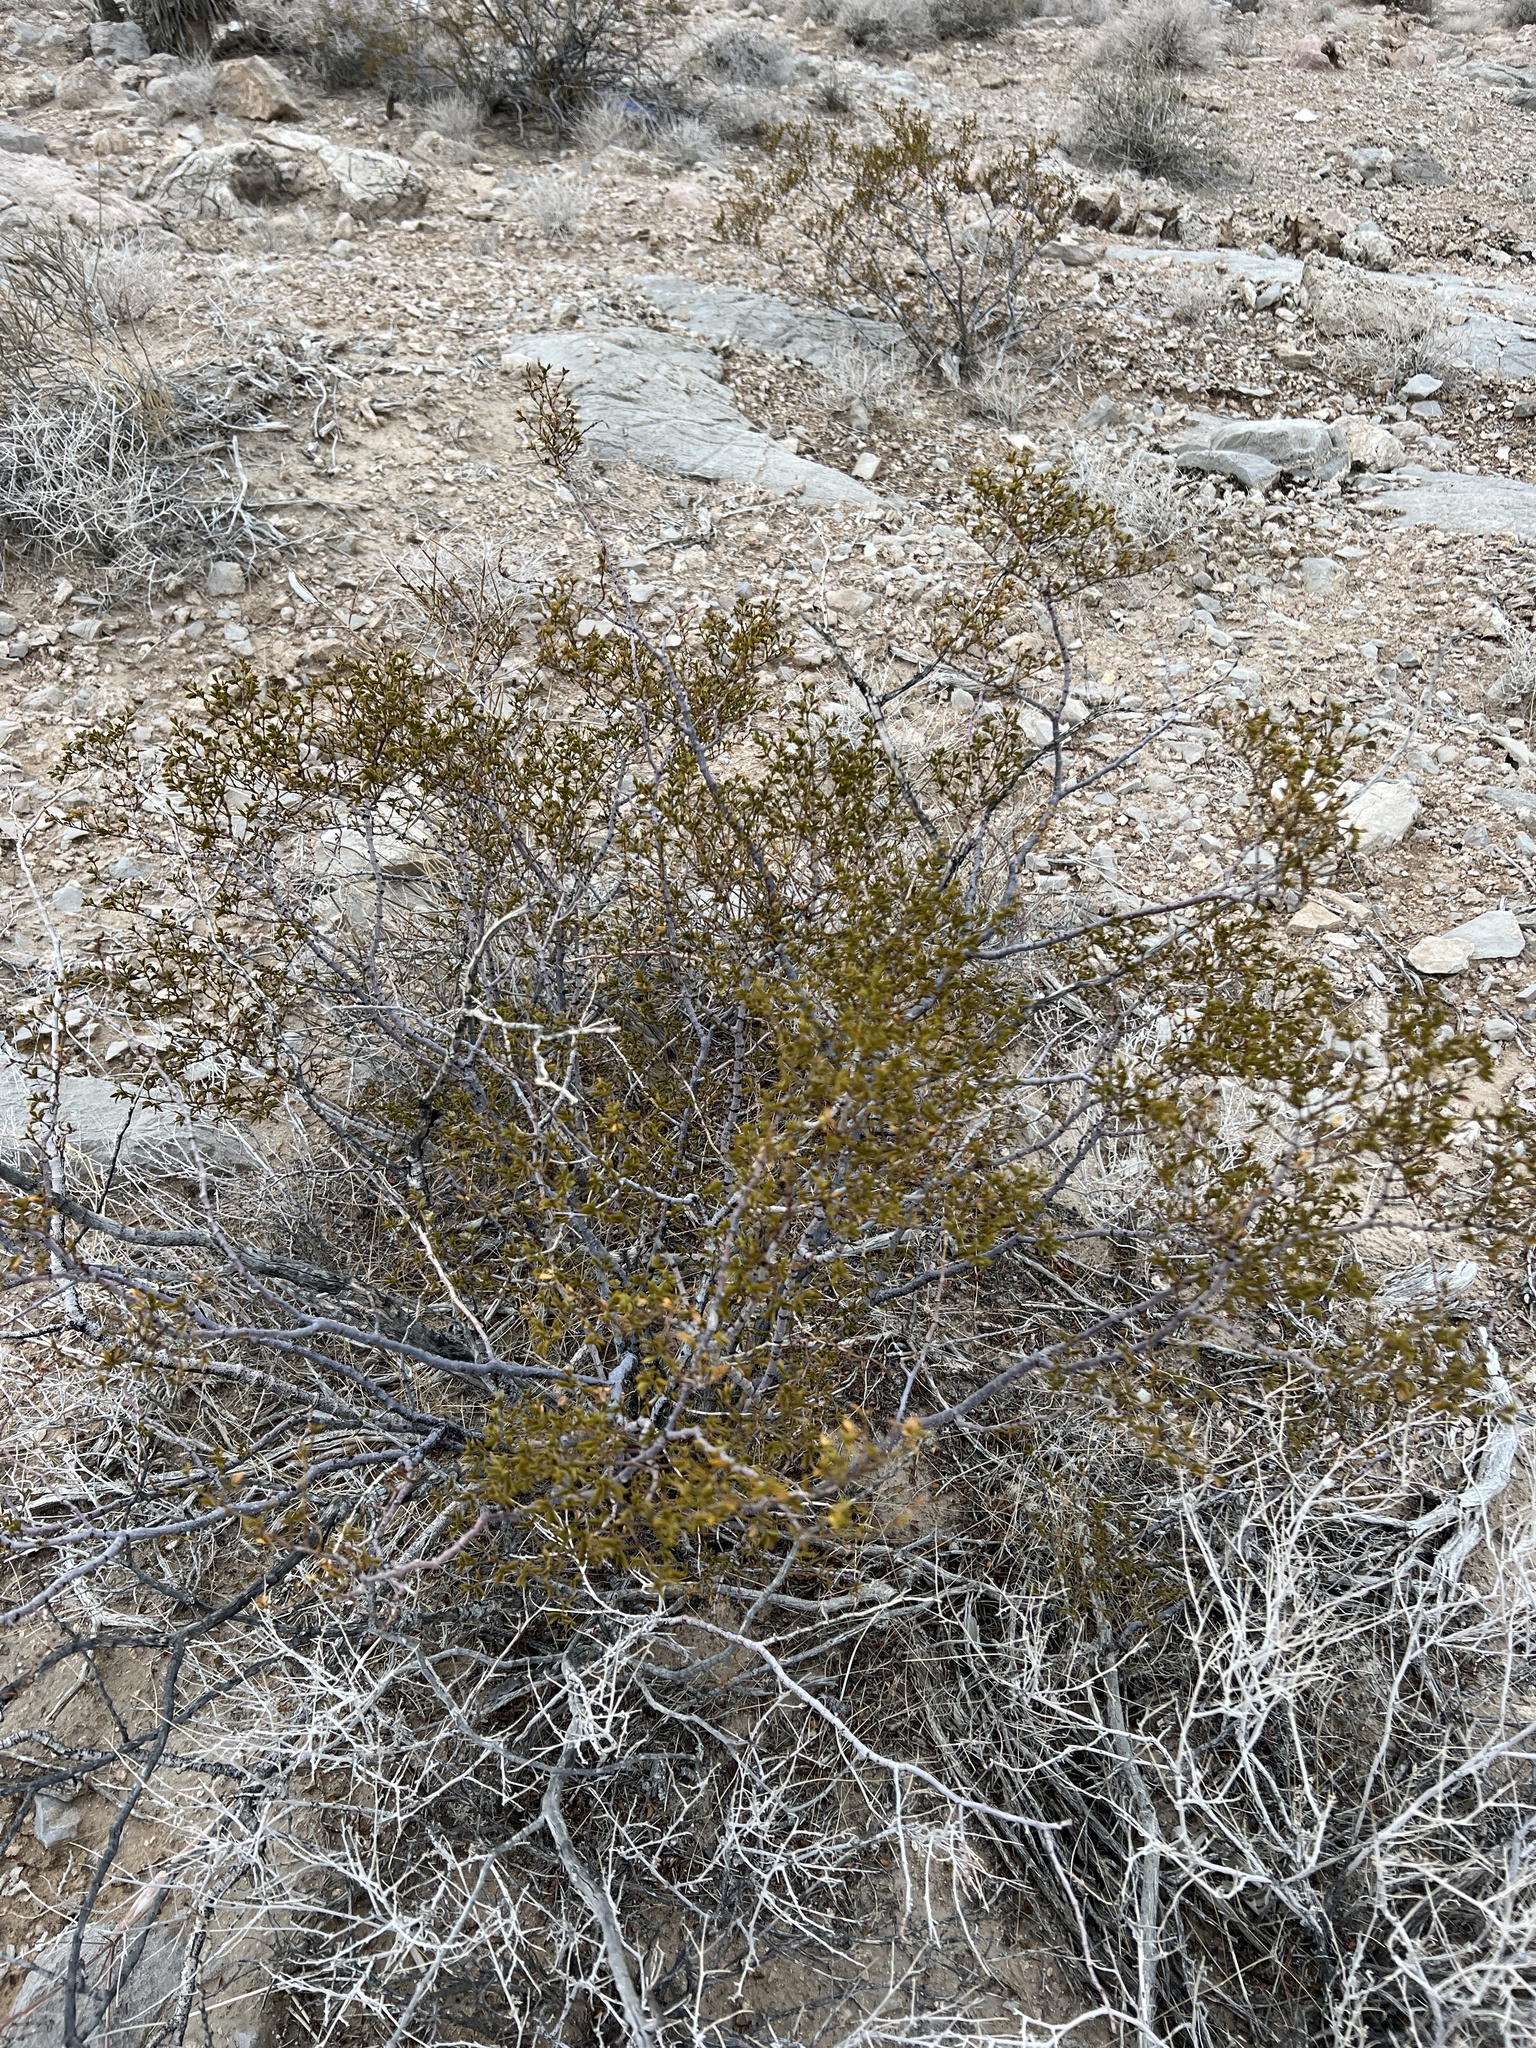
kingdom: Plantae
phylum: Tracheophyta
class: Magnoliopsida
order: Zygophyllales
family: Zygophyllaceae
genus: Larrea
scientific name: Larrea tridentata
